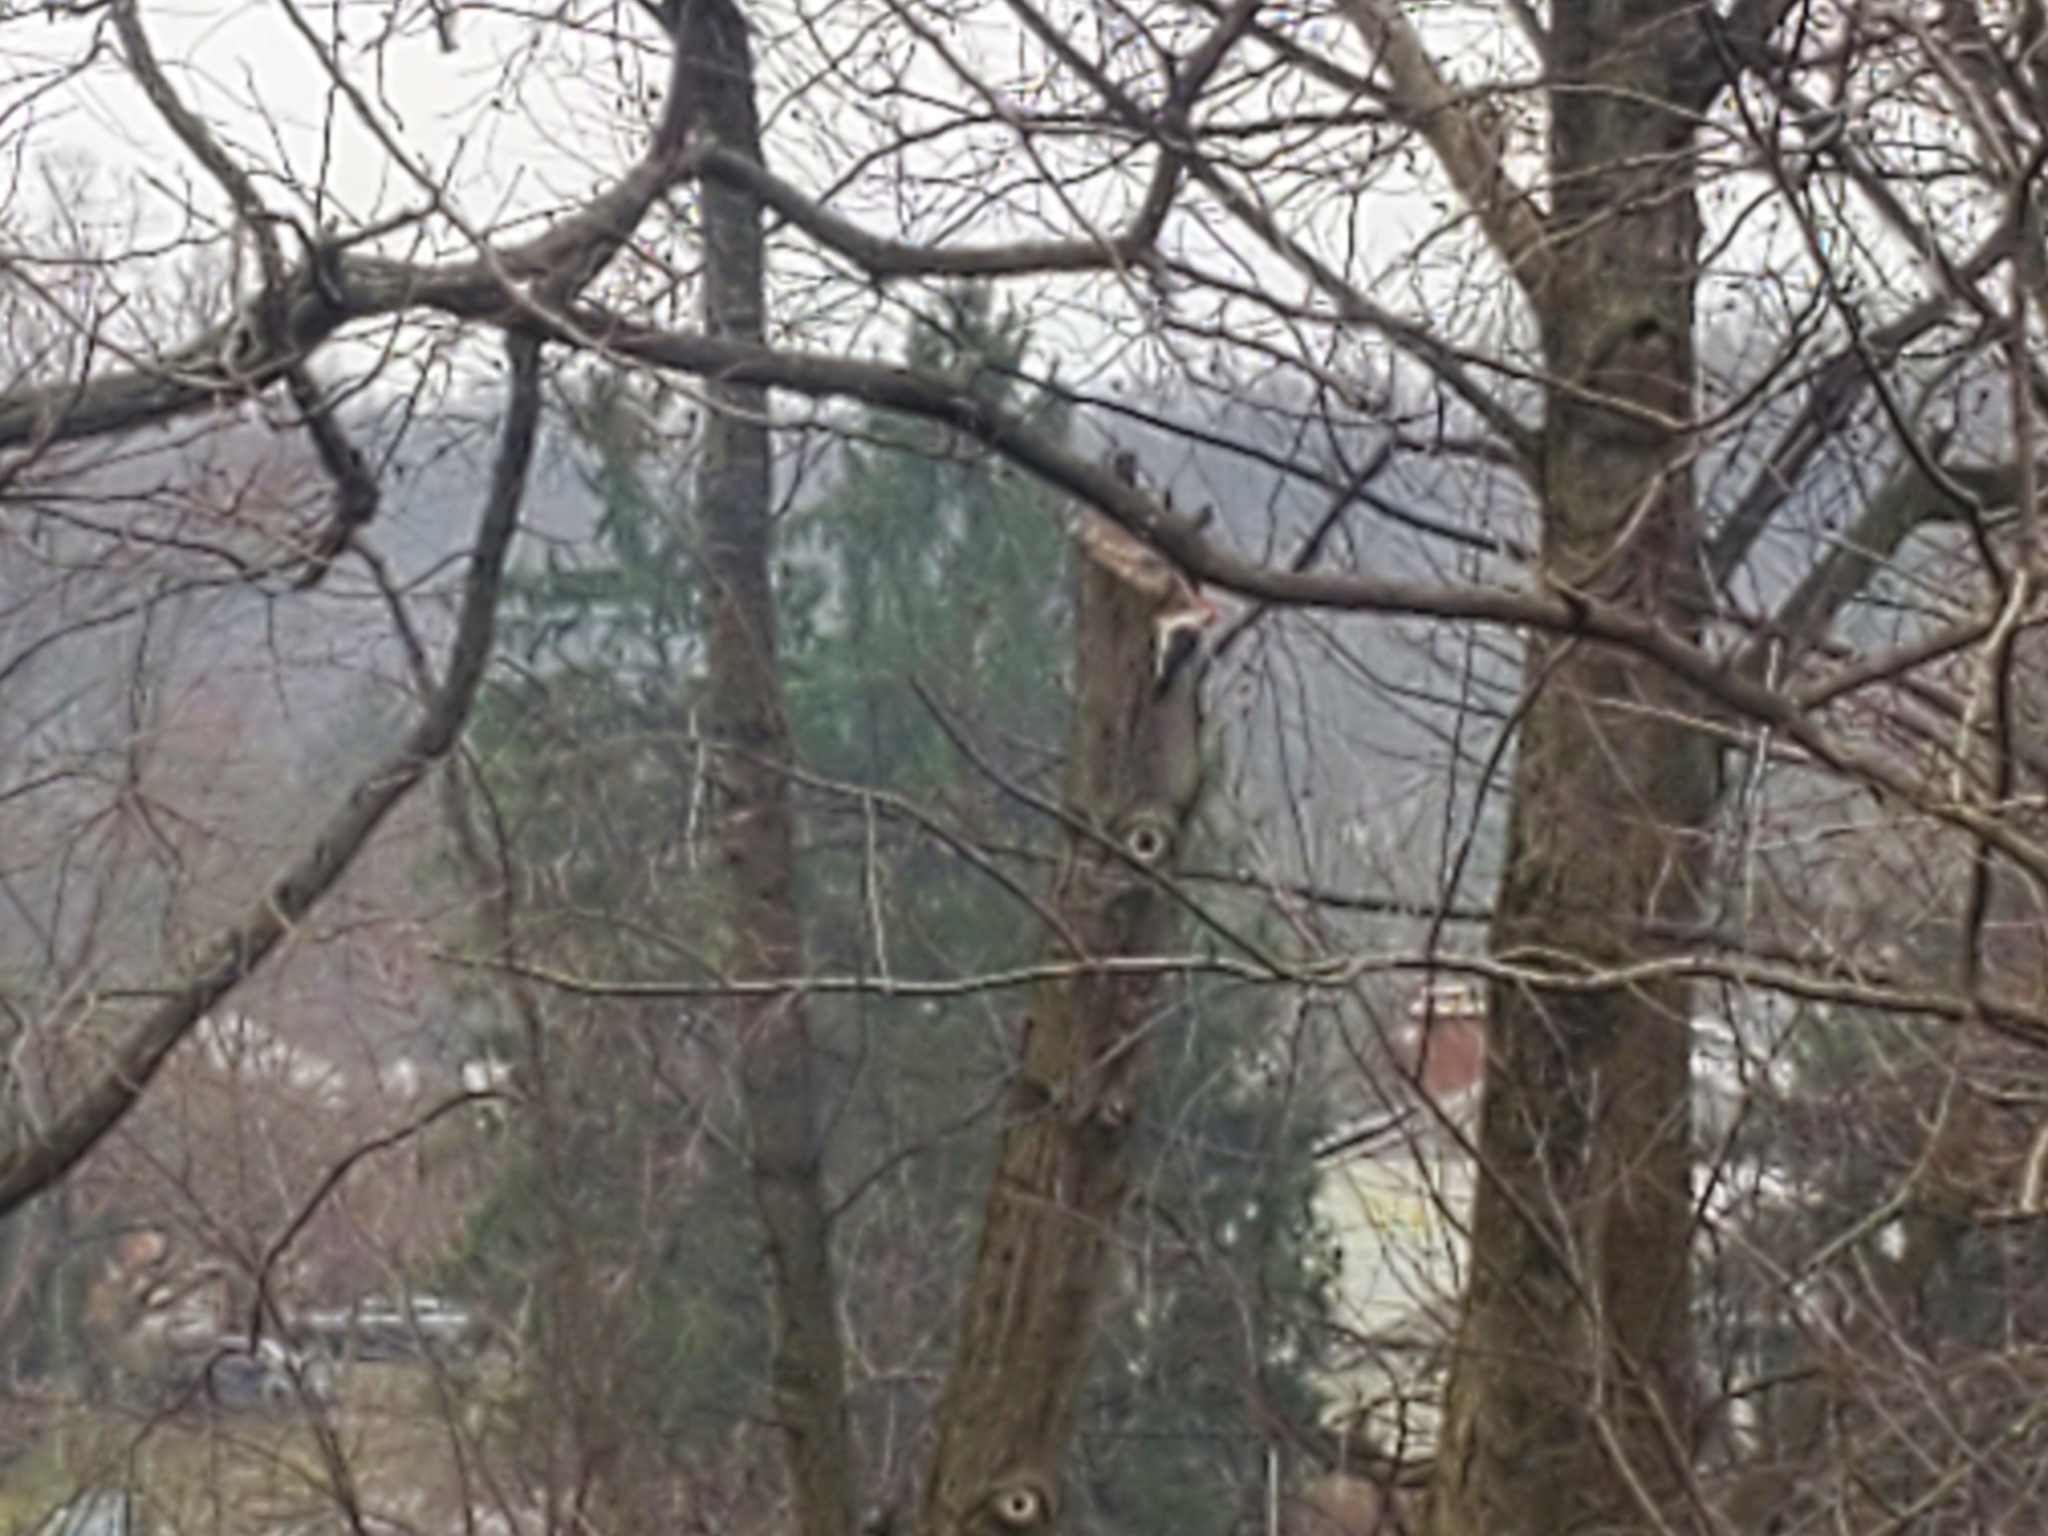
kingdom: Animalia
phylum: Chordata
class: Aves
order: Piciformes
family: Picidae
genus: Melanerpes
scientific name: Melanerpes carolinus
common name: Red-bellied woodpecker
